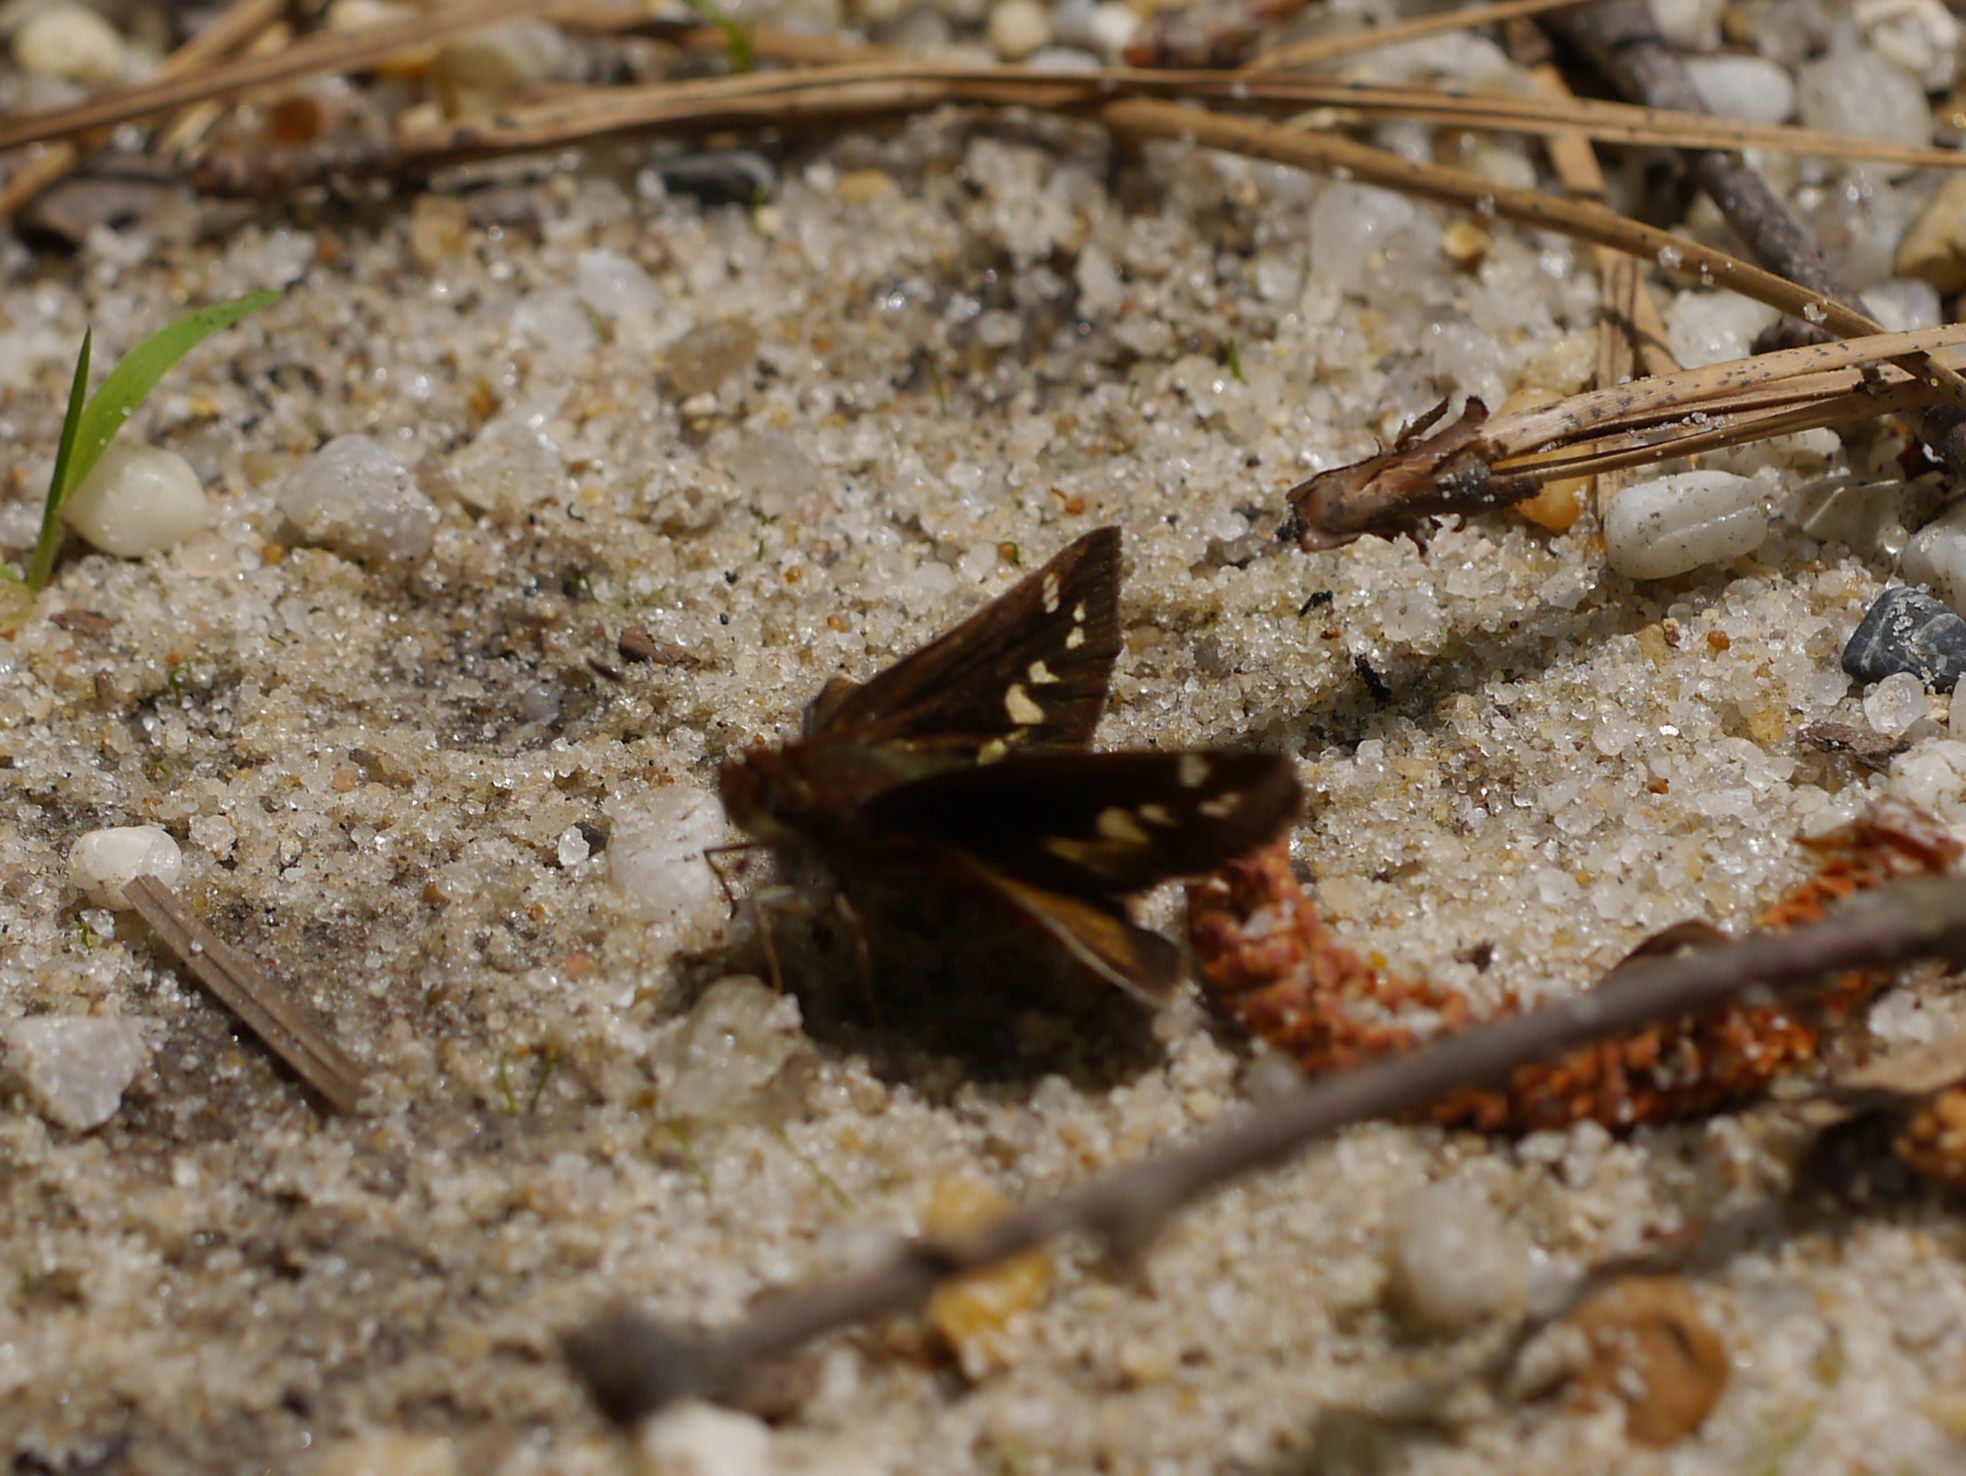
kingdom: Animalia
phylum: Arthropoda
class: Insecta
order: Lepidoptera
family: Hesperiidae
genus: Lon
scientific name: Lon zabulon
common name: Zabulon skipper
